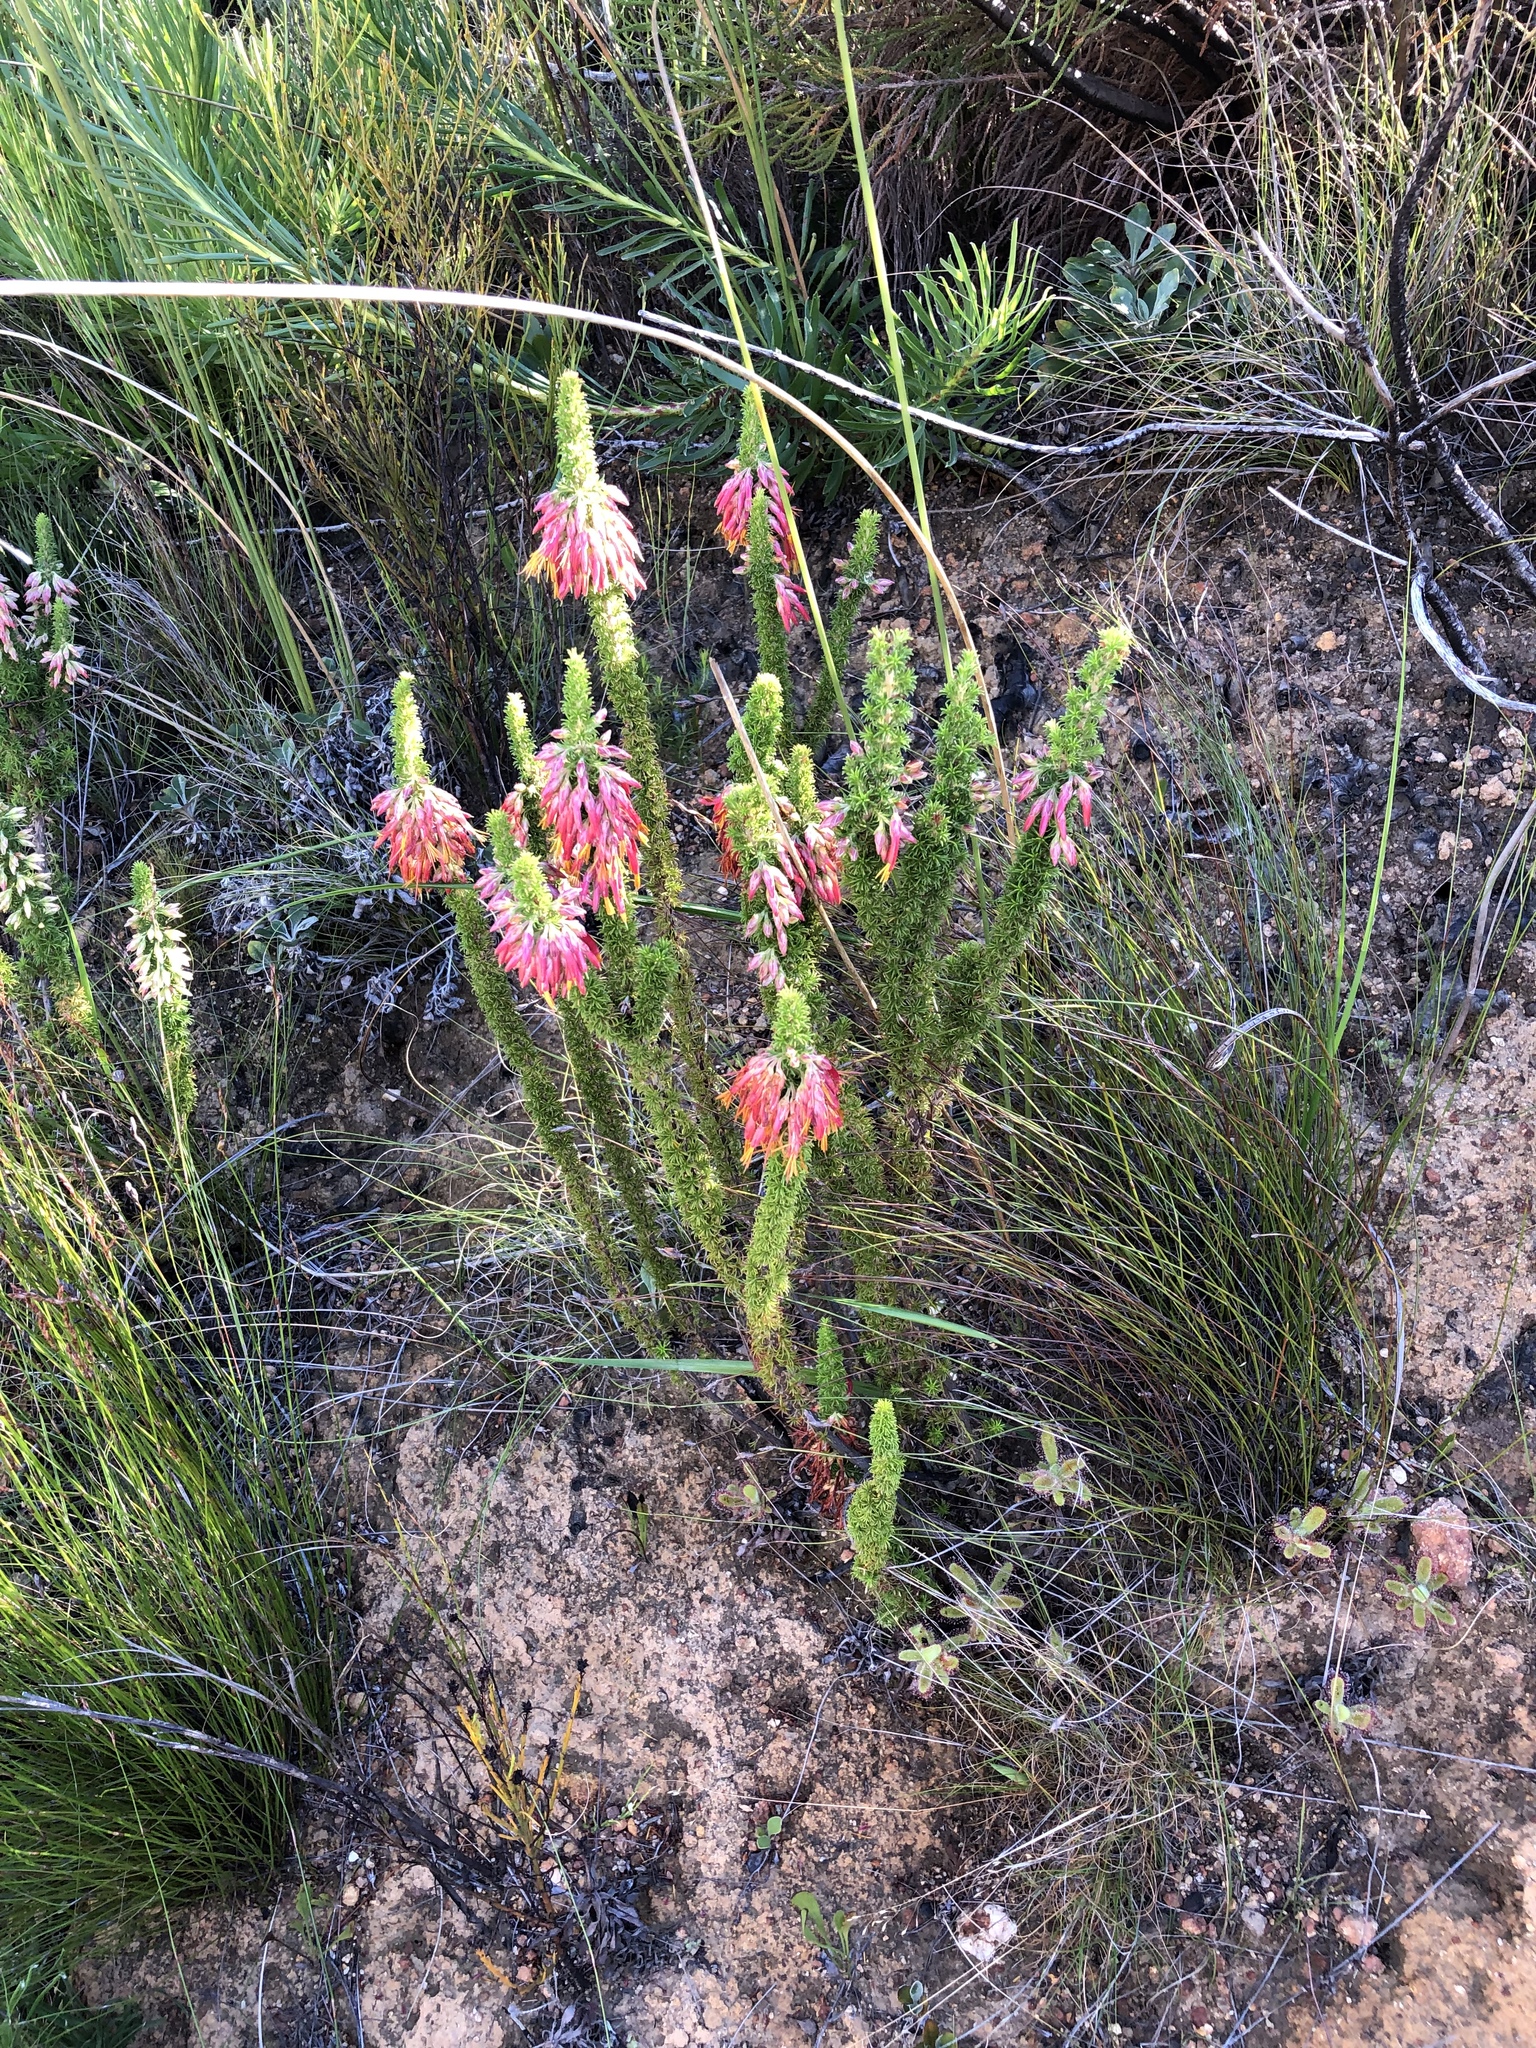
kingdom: Plantae
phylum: Tracheophyta
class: Magnoliopsida
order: Ericales
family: Ericaceae
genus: Erica
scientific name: Erica coccinea
